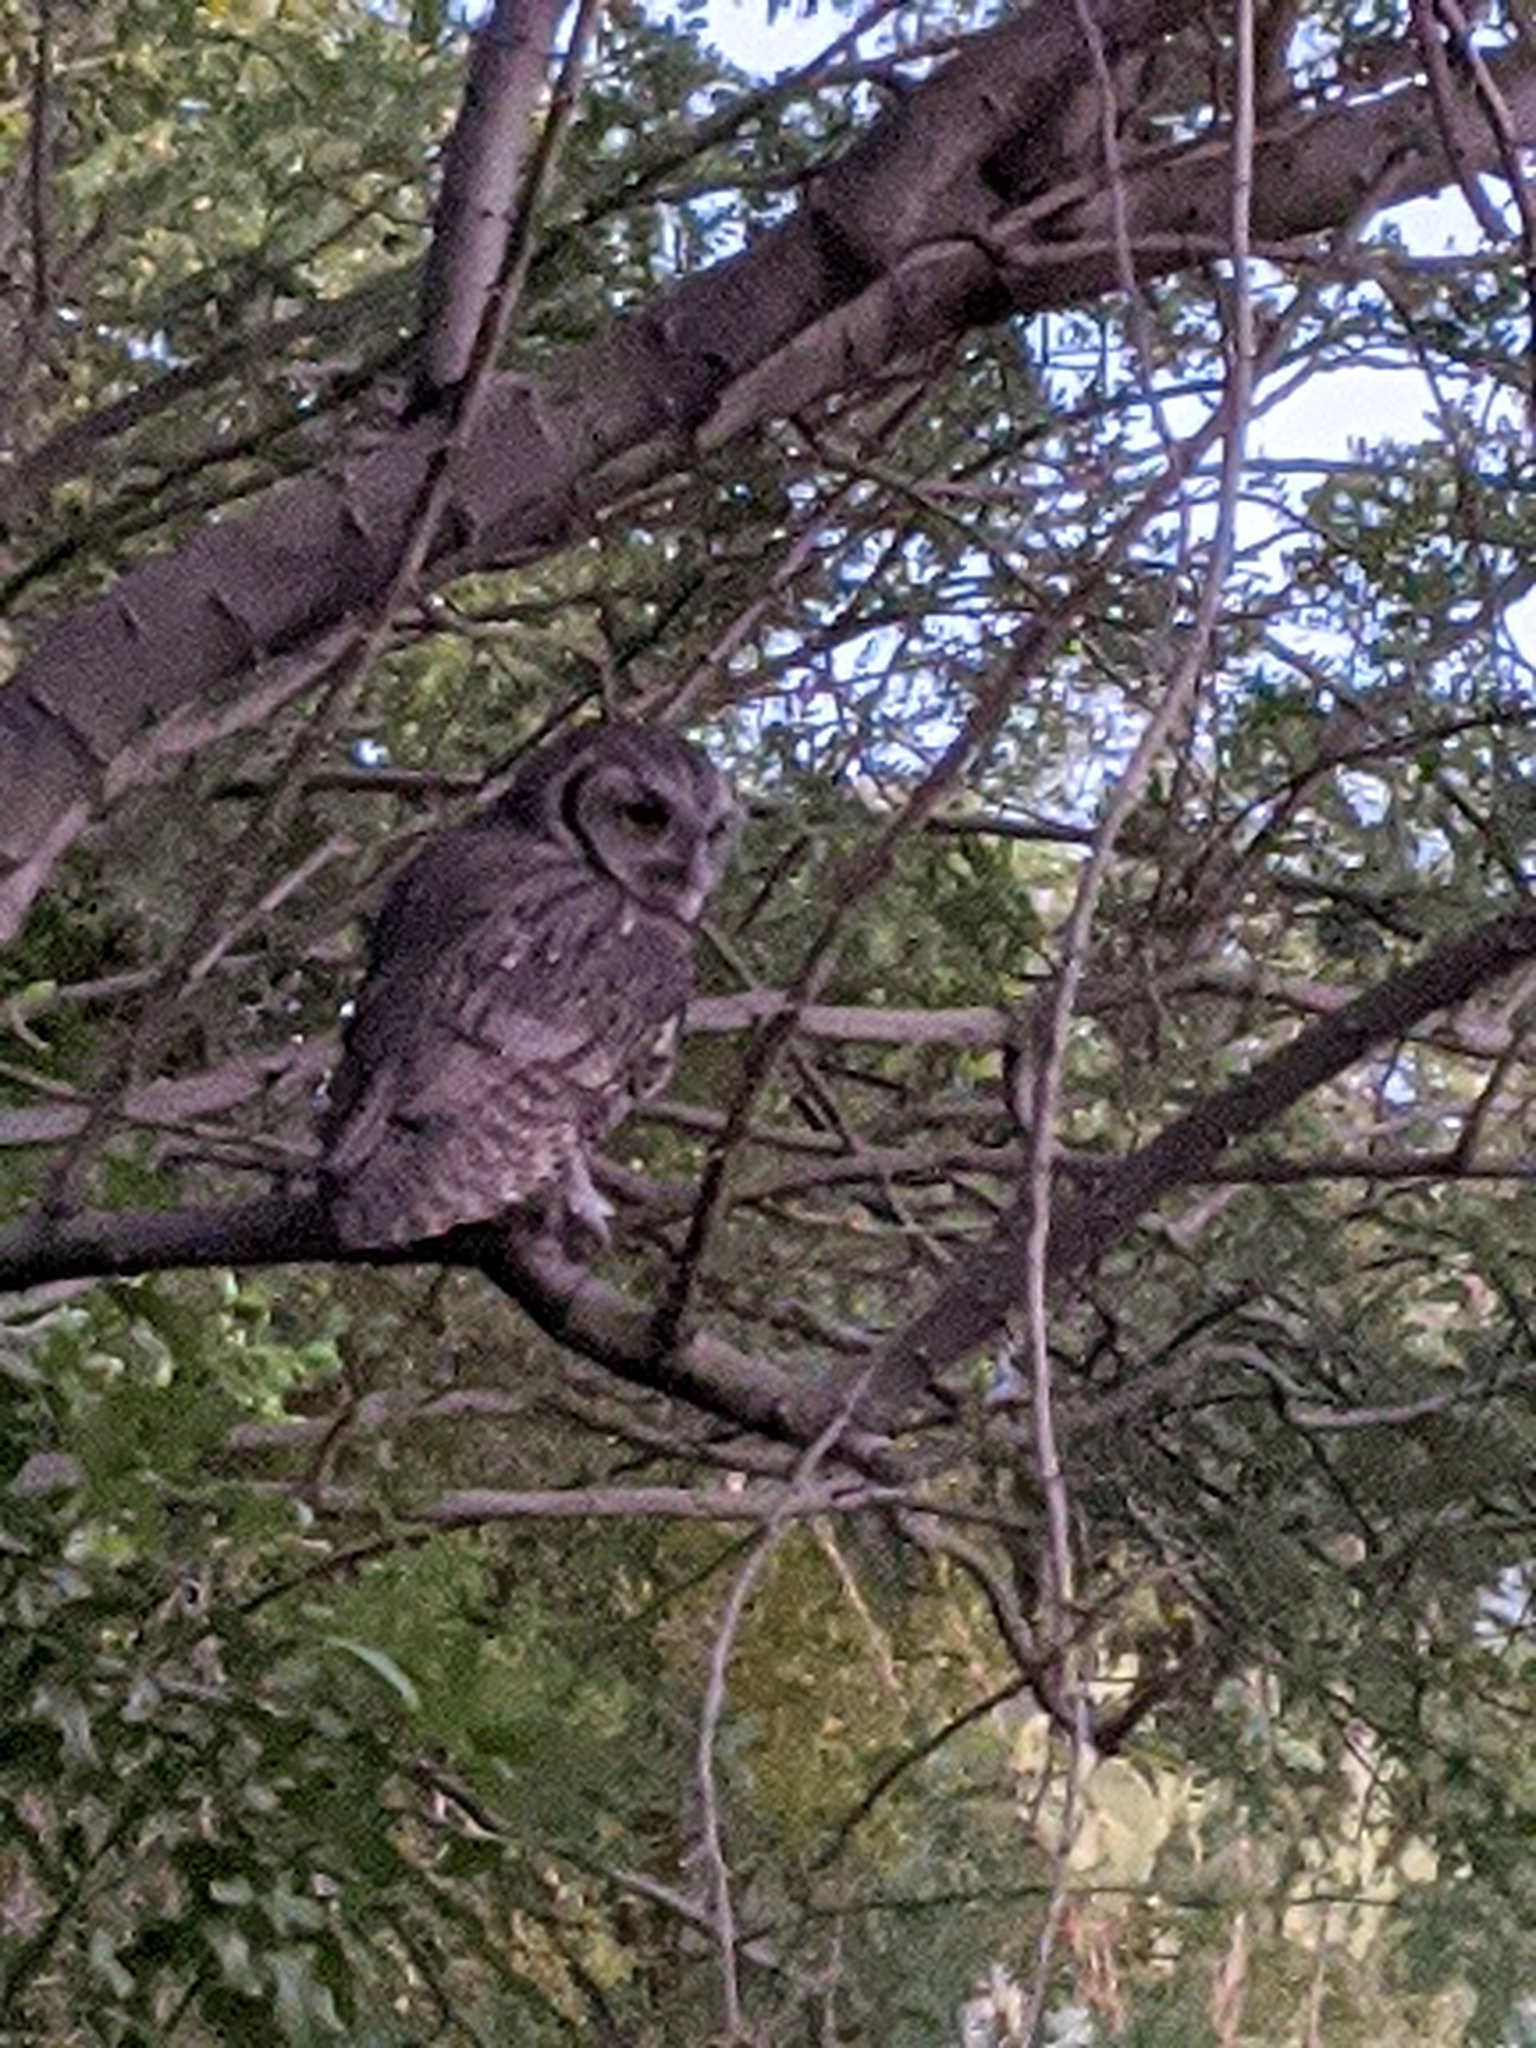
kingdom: Animalia
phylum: Chordata
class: Aves
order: Strigiformes
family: Strigidae
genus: Megascops
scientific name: Megascops kennicottii
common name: Western screech-owl
